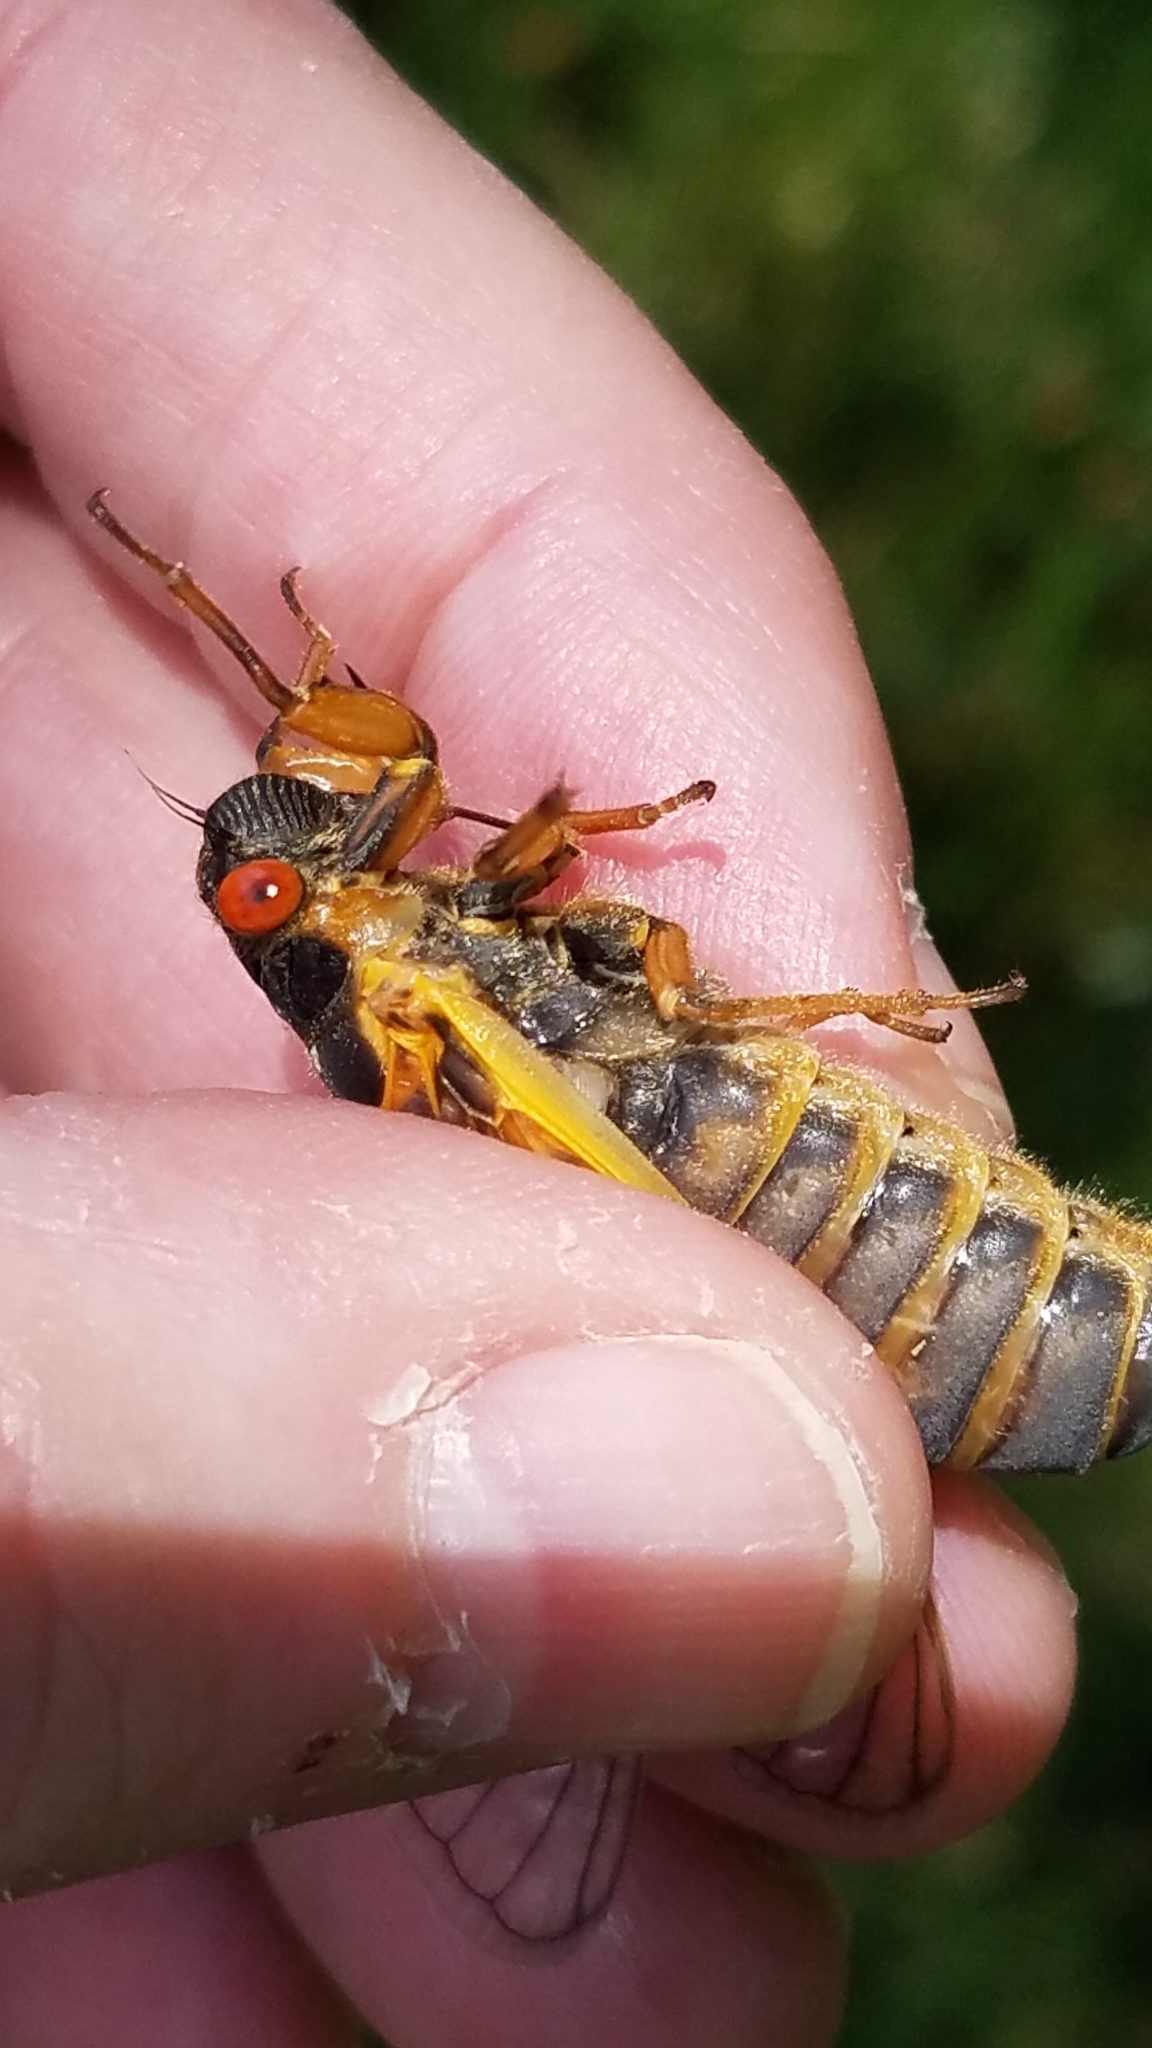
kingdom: Animalia
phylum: Arthropoda
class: Insecta
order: Hemiptera
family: Cicadidae
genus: Magicicada
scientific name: Magicicada septendecim
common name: Periodical cicada
